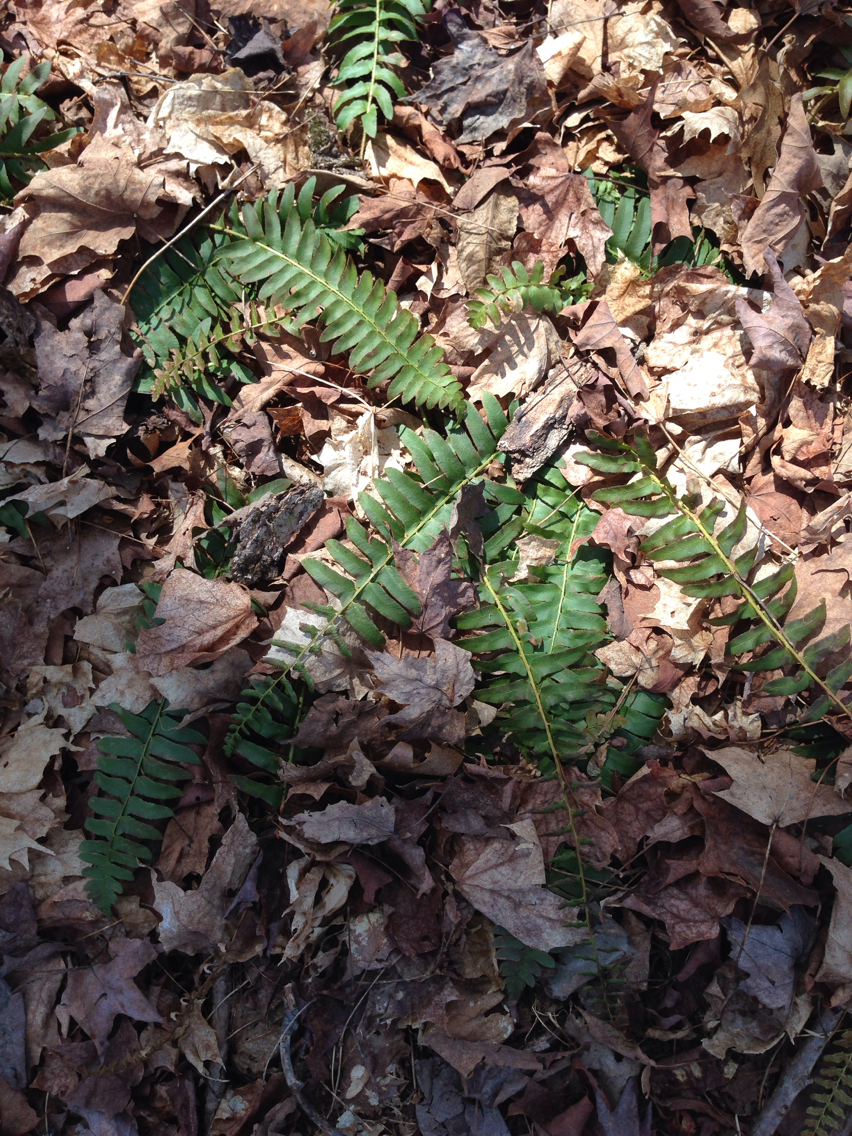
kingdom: Plantae
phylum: Tracheophyta
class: Polypodiopsida
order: Polypodiales
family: Dryopteridaceae
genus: Polystichum
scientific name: Polystichum acrostichoides
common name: Christmas fern
